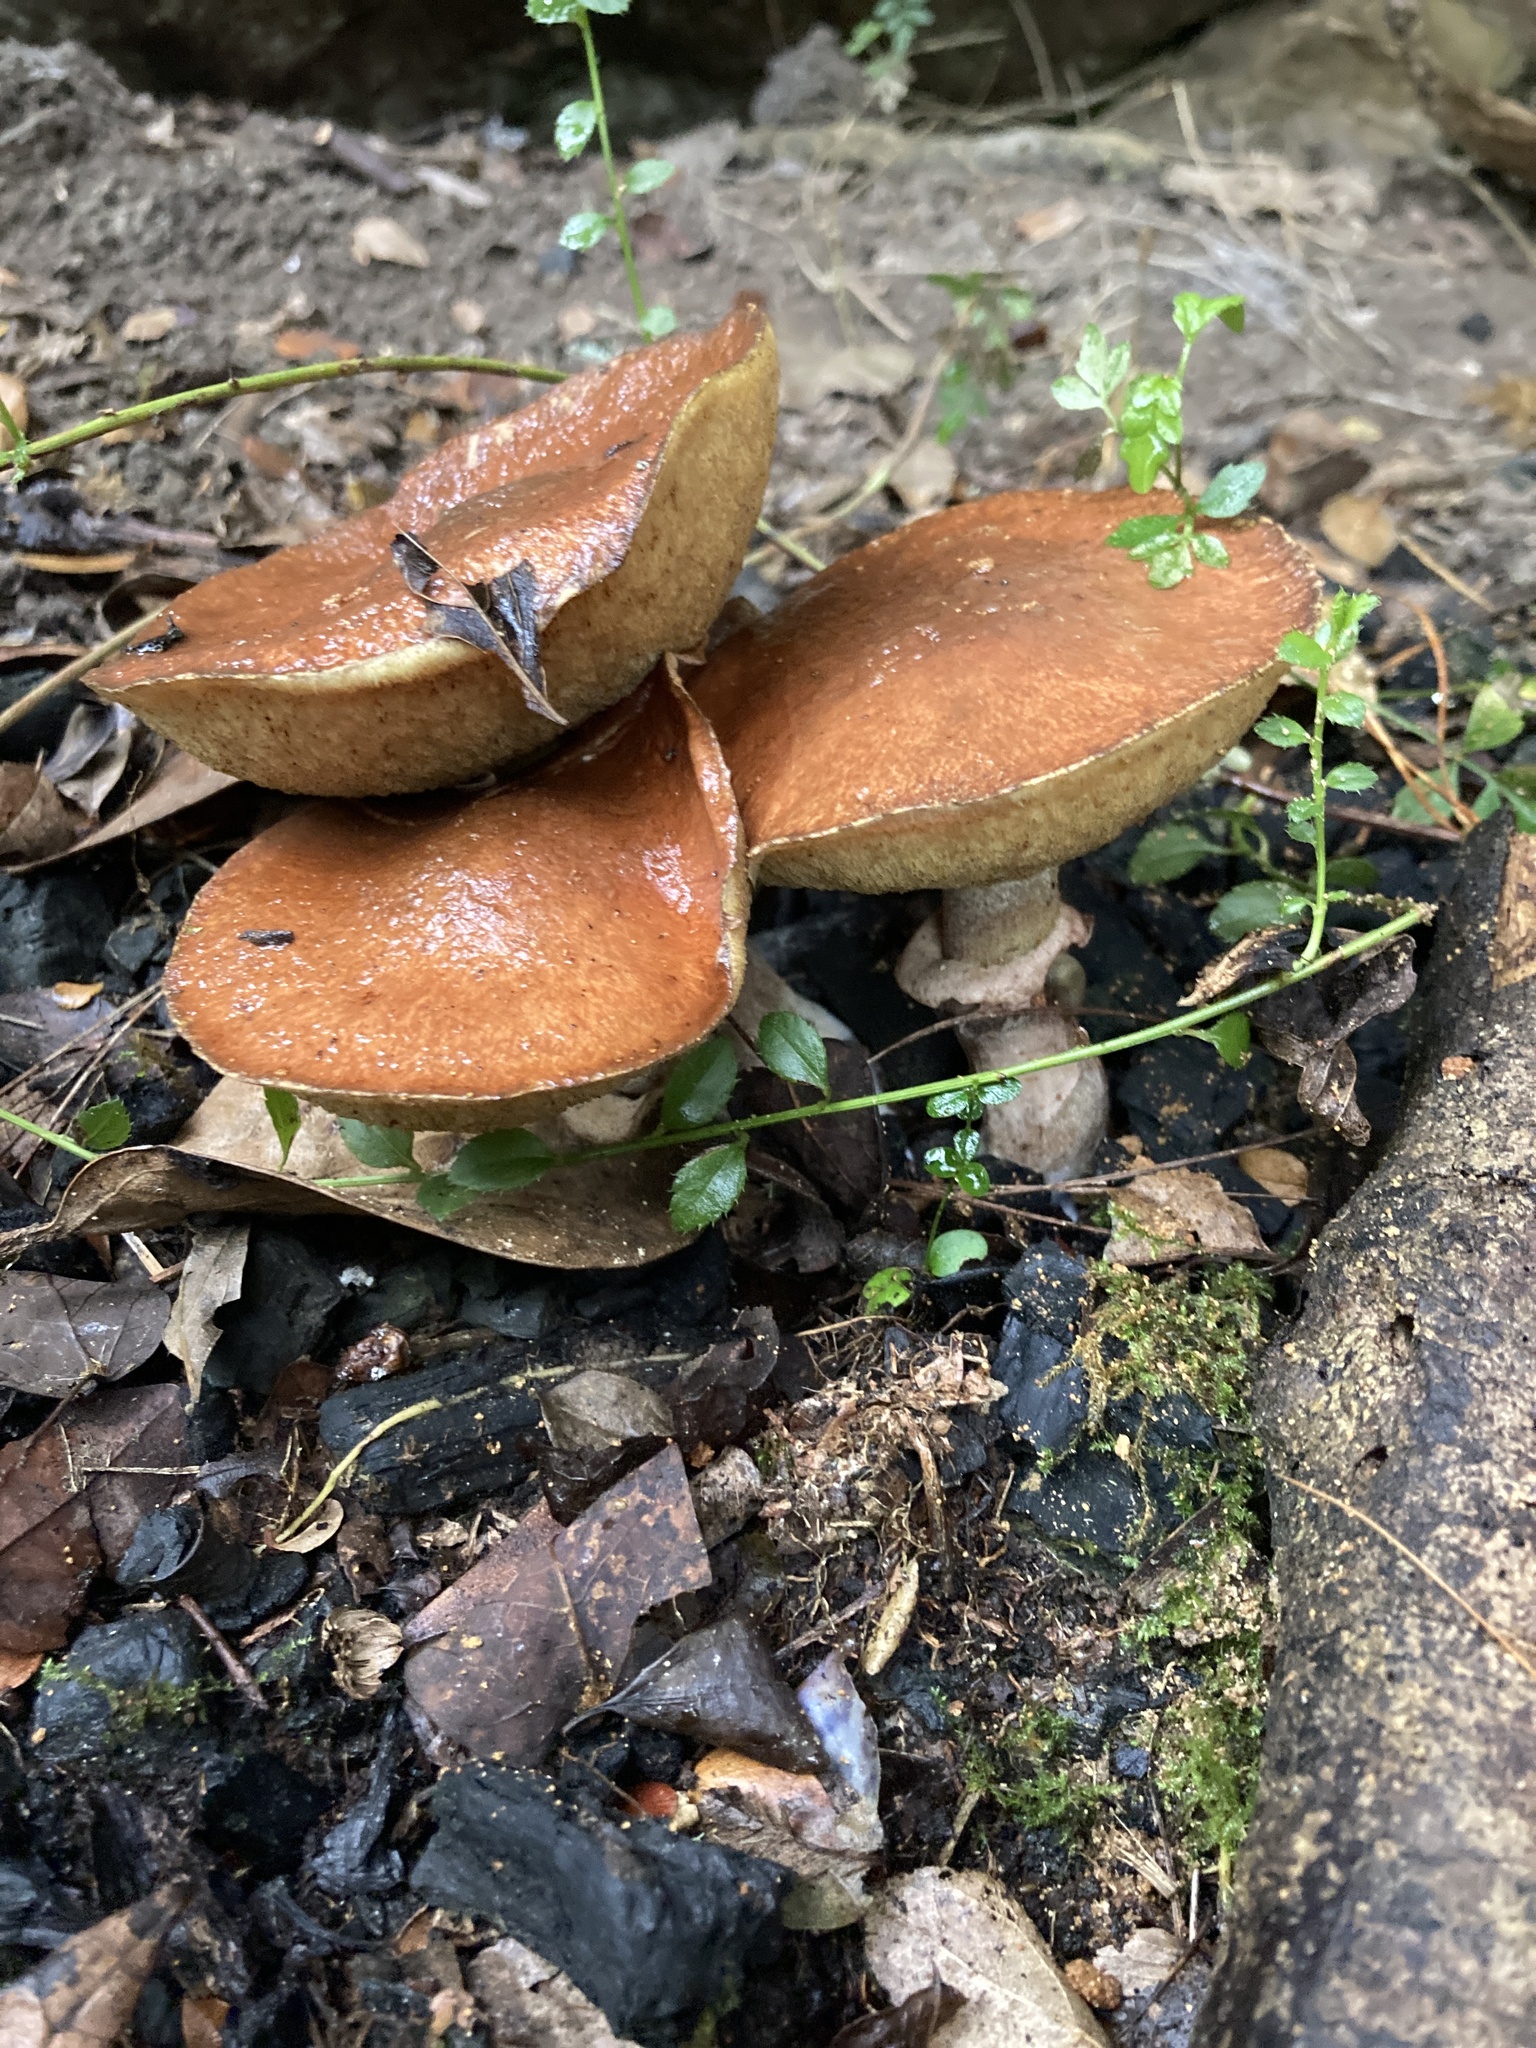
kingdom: Fungi
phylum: Basidiomycota
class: Agaricomycetes
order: Boletales
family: Suillaceae
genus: Suillus
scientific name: Suillus luteus
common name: Slippery jack
